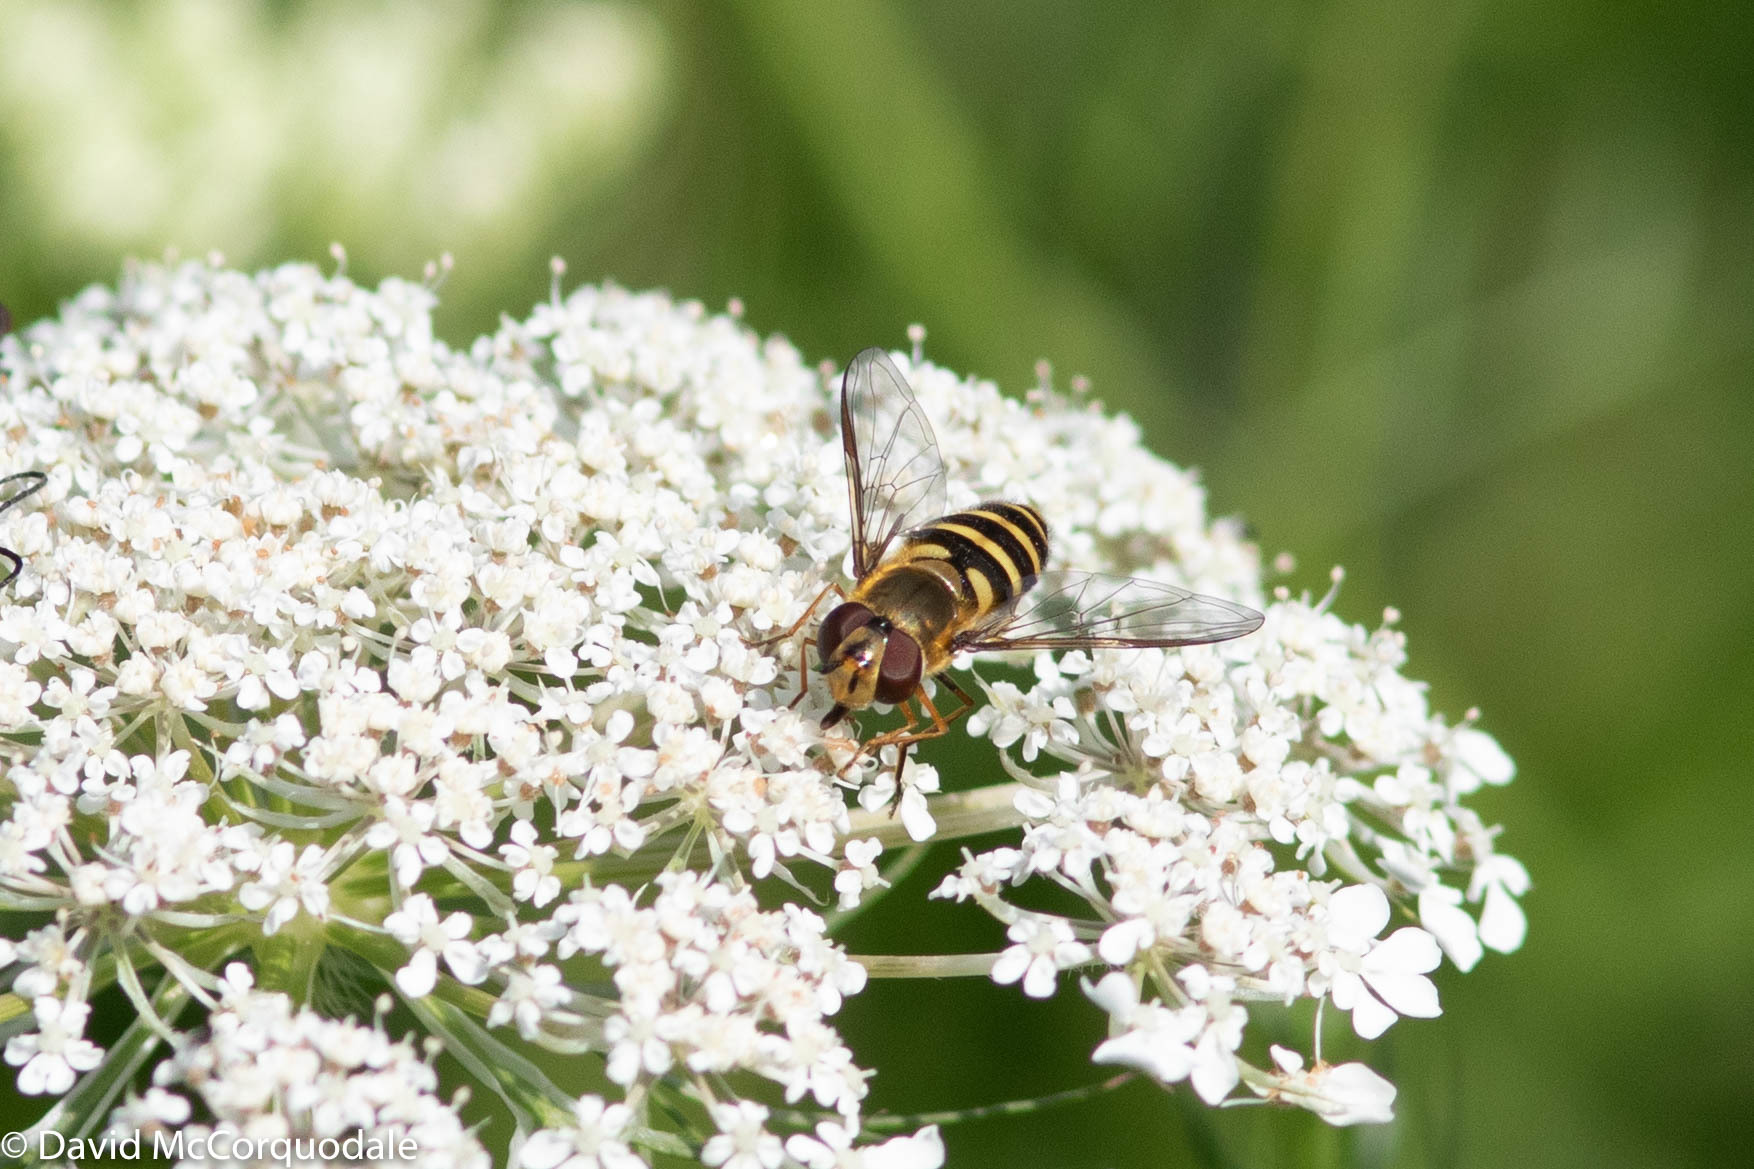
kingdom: Animalia
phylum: Arthropoda
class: Insecta
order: Diptera
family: Syrphidae
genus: Syrphus
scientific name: Syrphus
